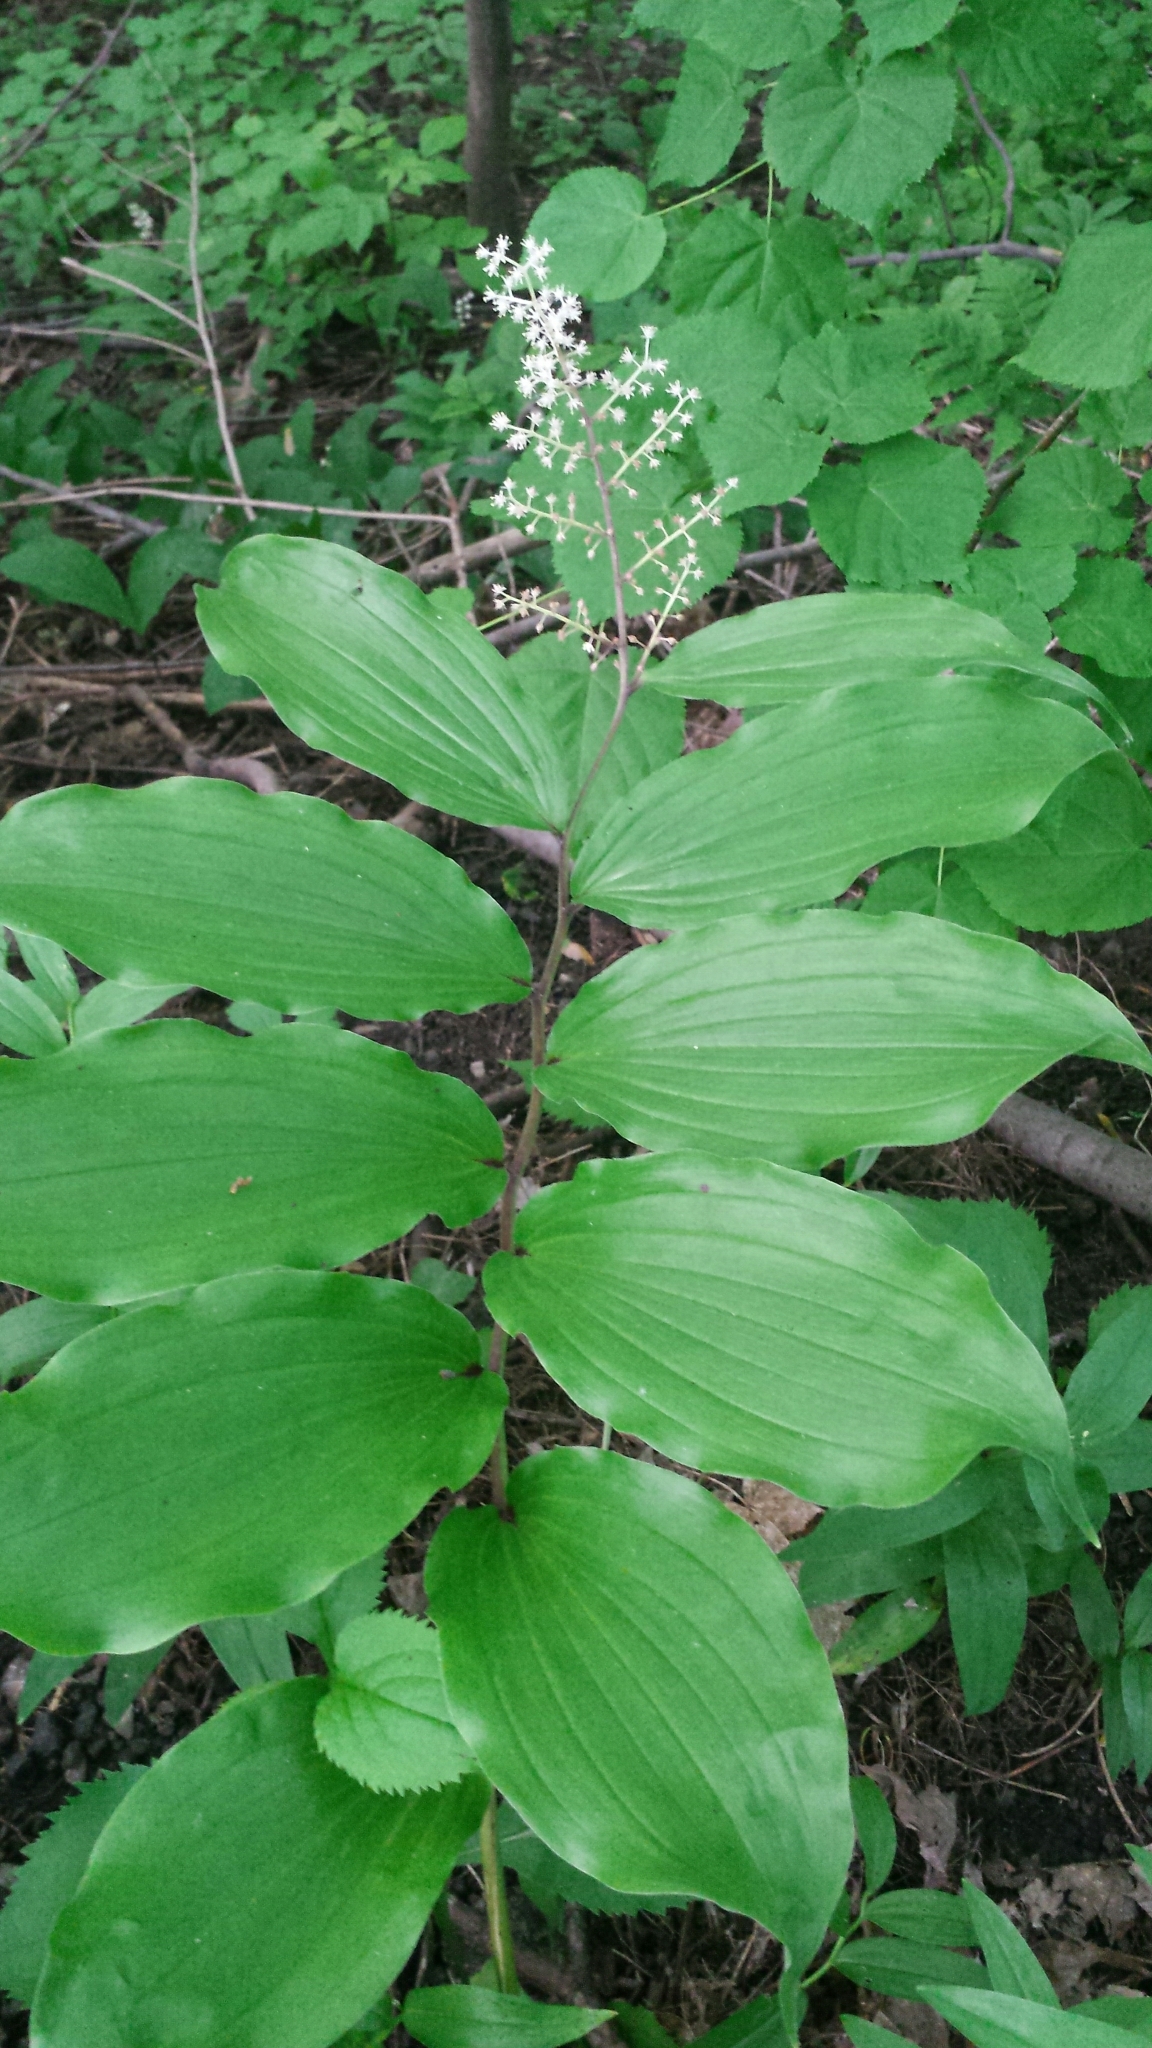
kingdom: Plantae
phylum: Tracheophyta
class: Liliopsida
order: Asparagales
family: Asparagaceae
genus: Maianthemum
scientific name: Maianthemum racemosum
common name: False spikenard
